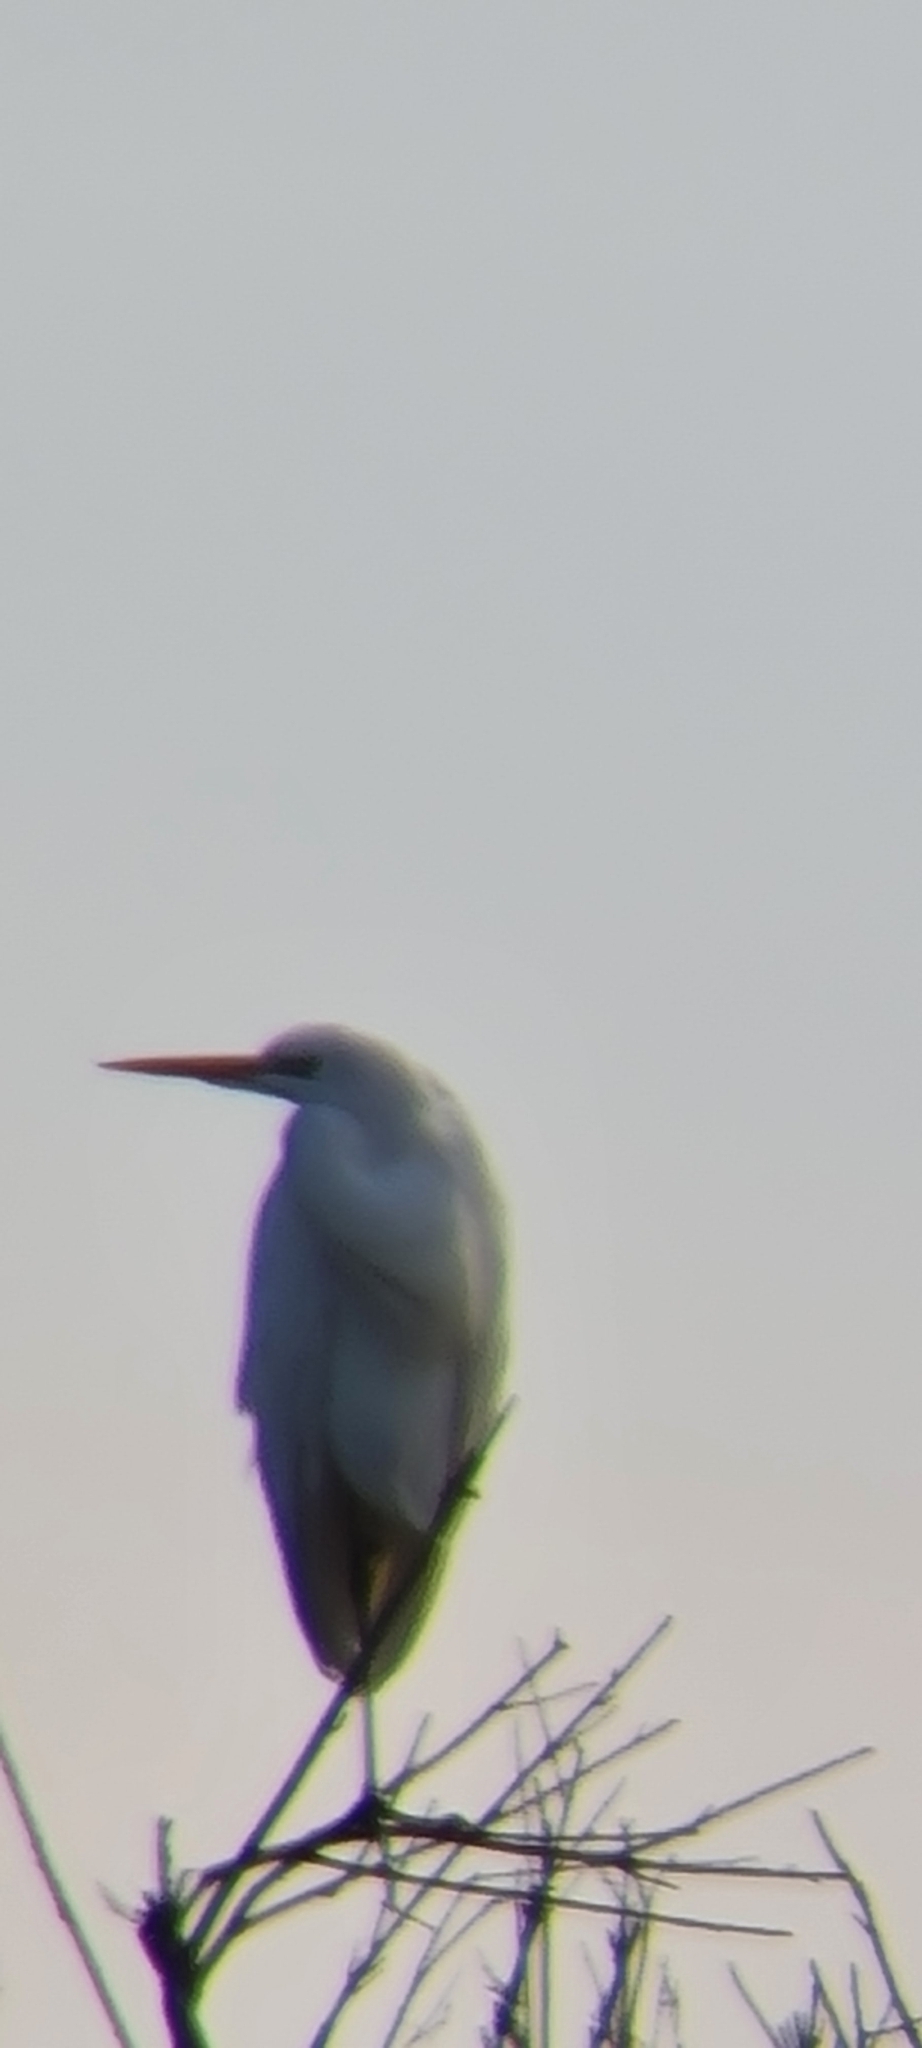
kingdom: Animalia
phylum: Chordata
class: Aves
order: Pelecaniformes
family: Ardeidae
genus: Ardea
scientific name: Ardea alba
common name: Great egret
